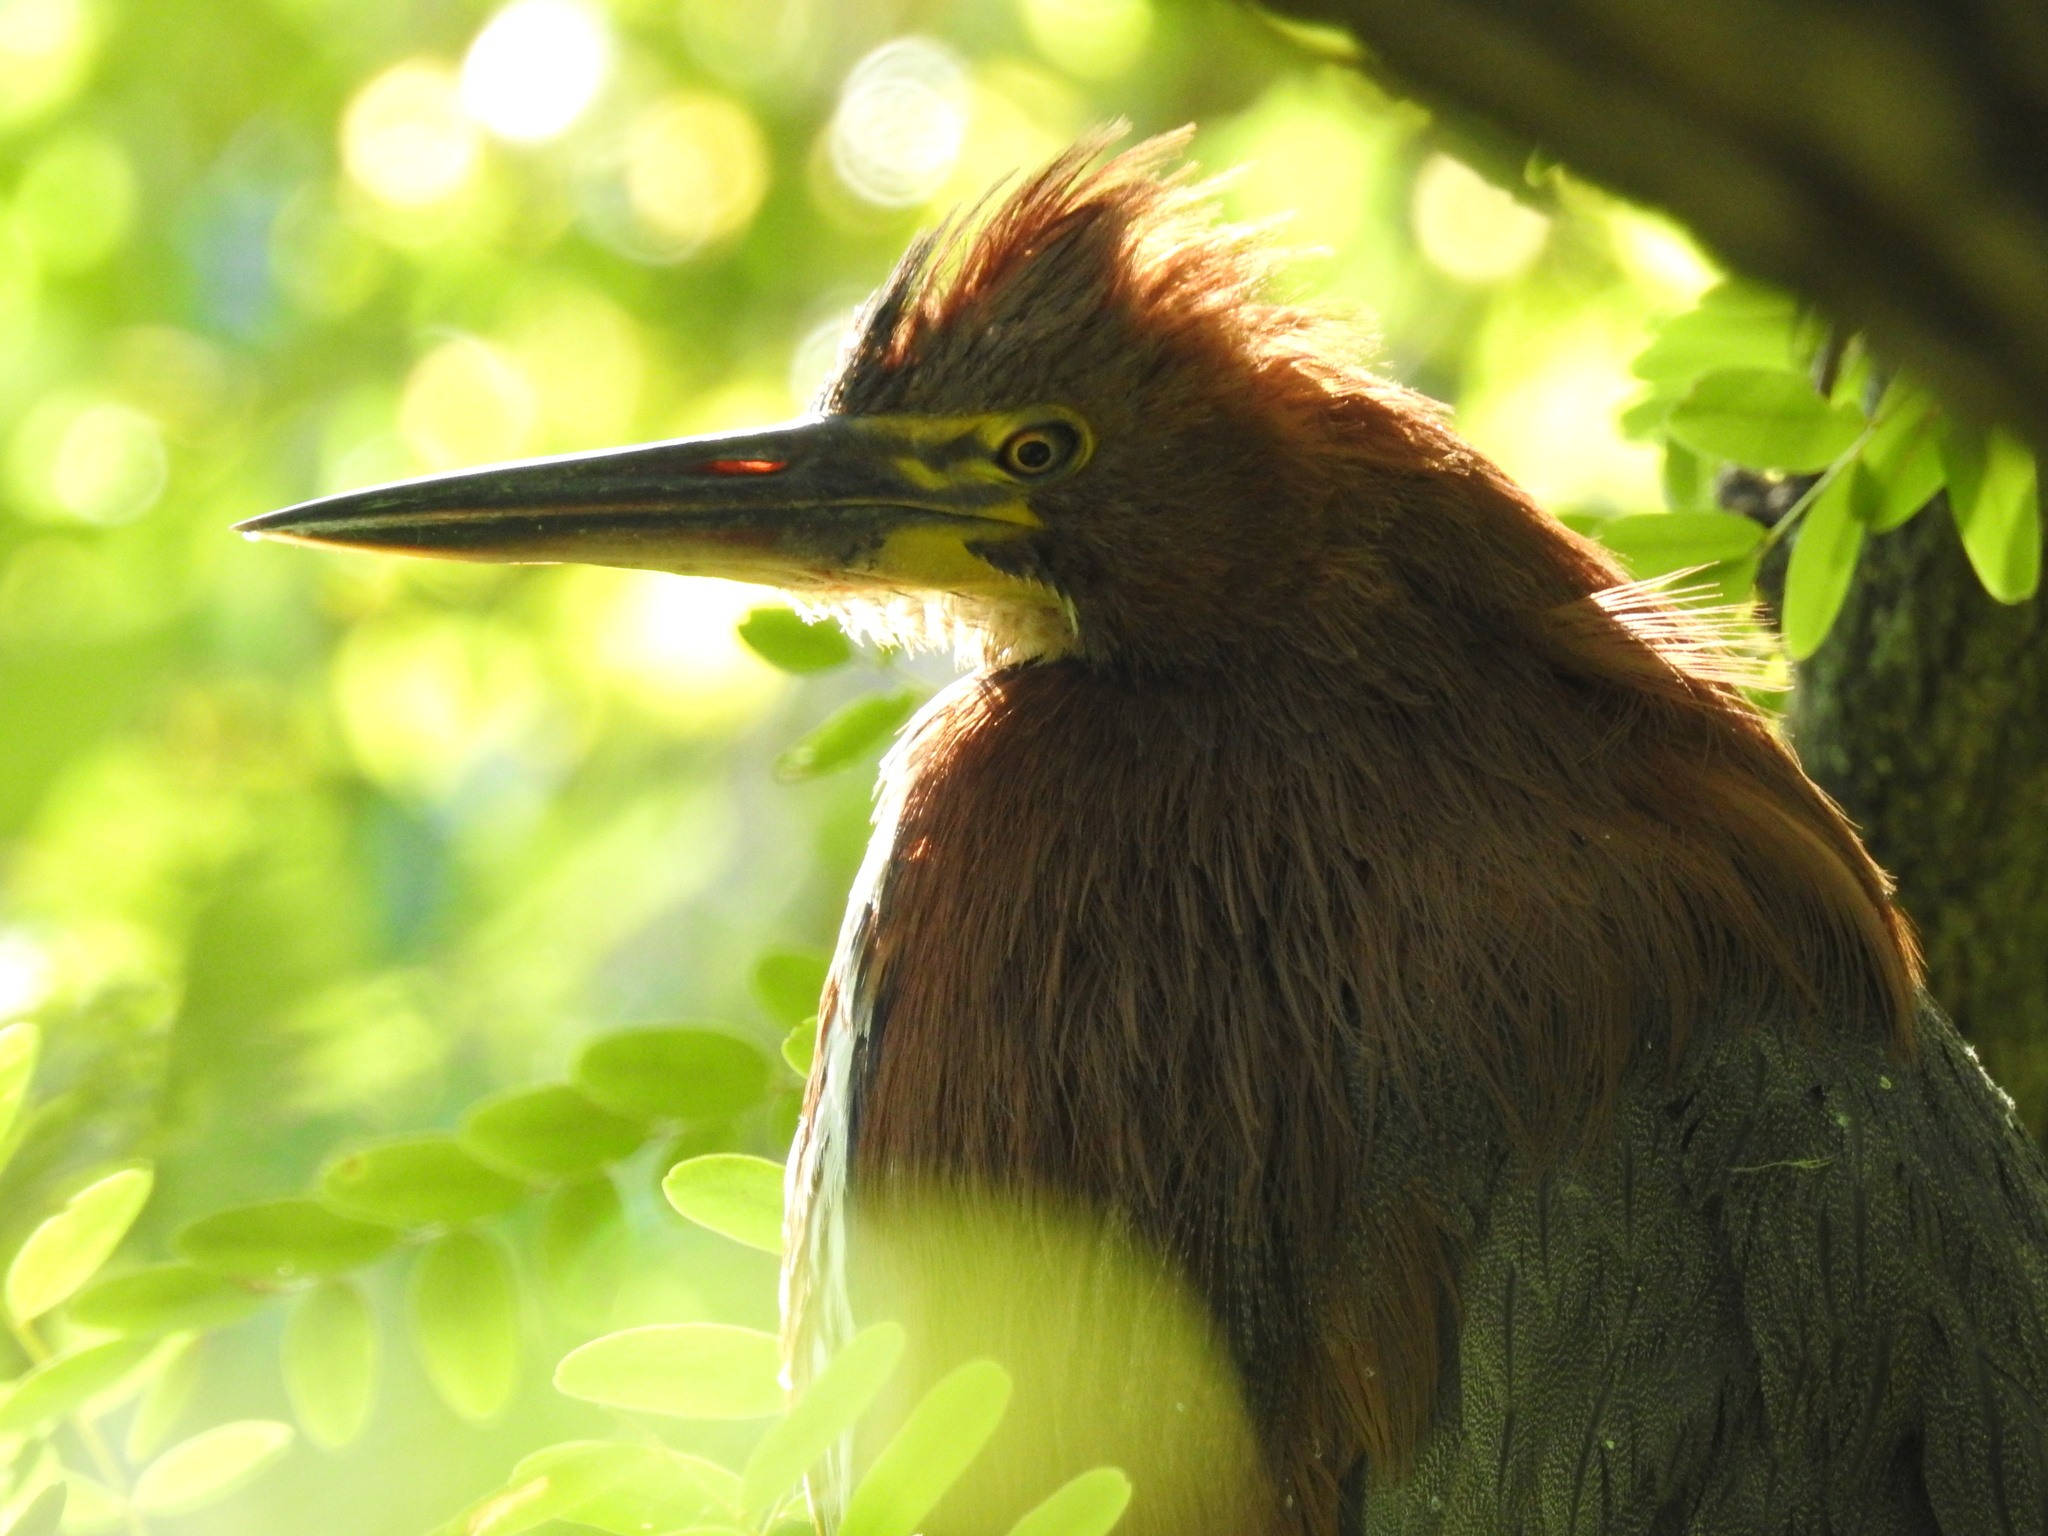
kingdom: Animalia
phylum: Chordata
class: Aves
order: Pelecaniformes
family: Ardeidae
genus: Tigrisoma
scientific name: Tigrisoma lineatum
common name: Rufescent tiger-heron
